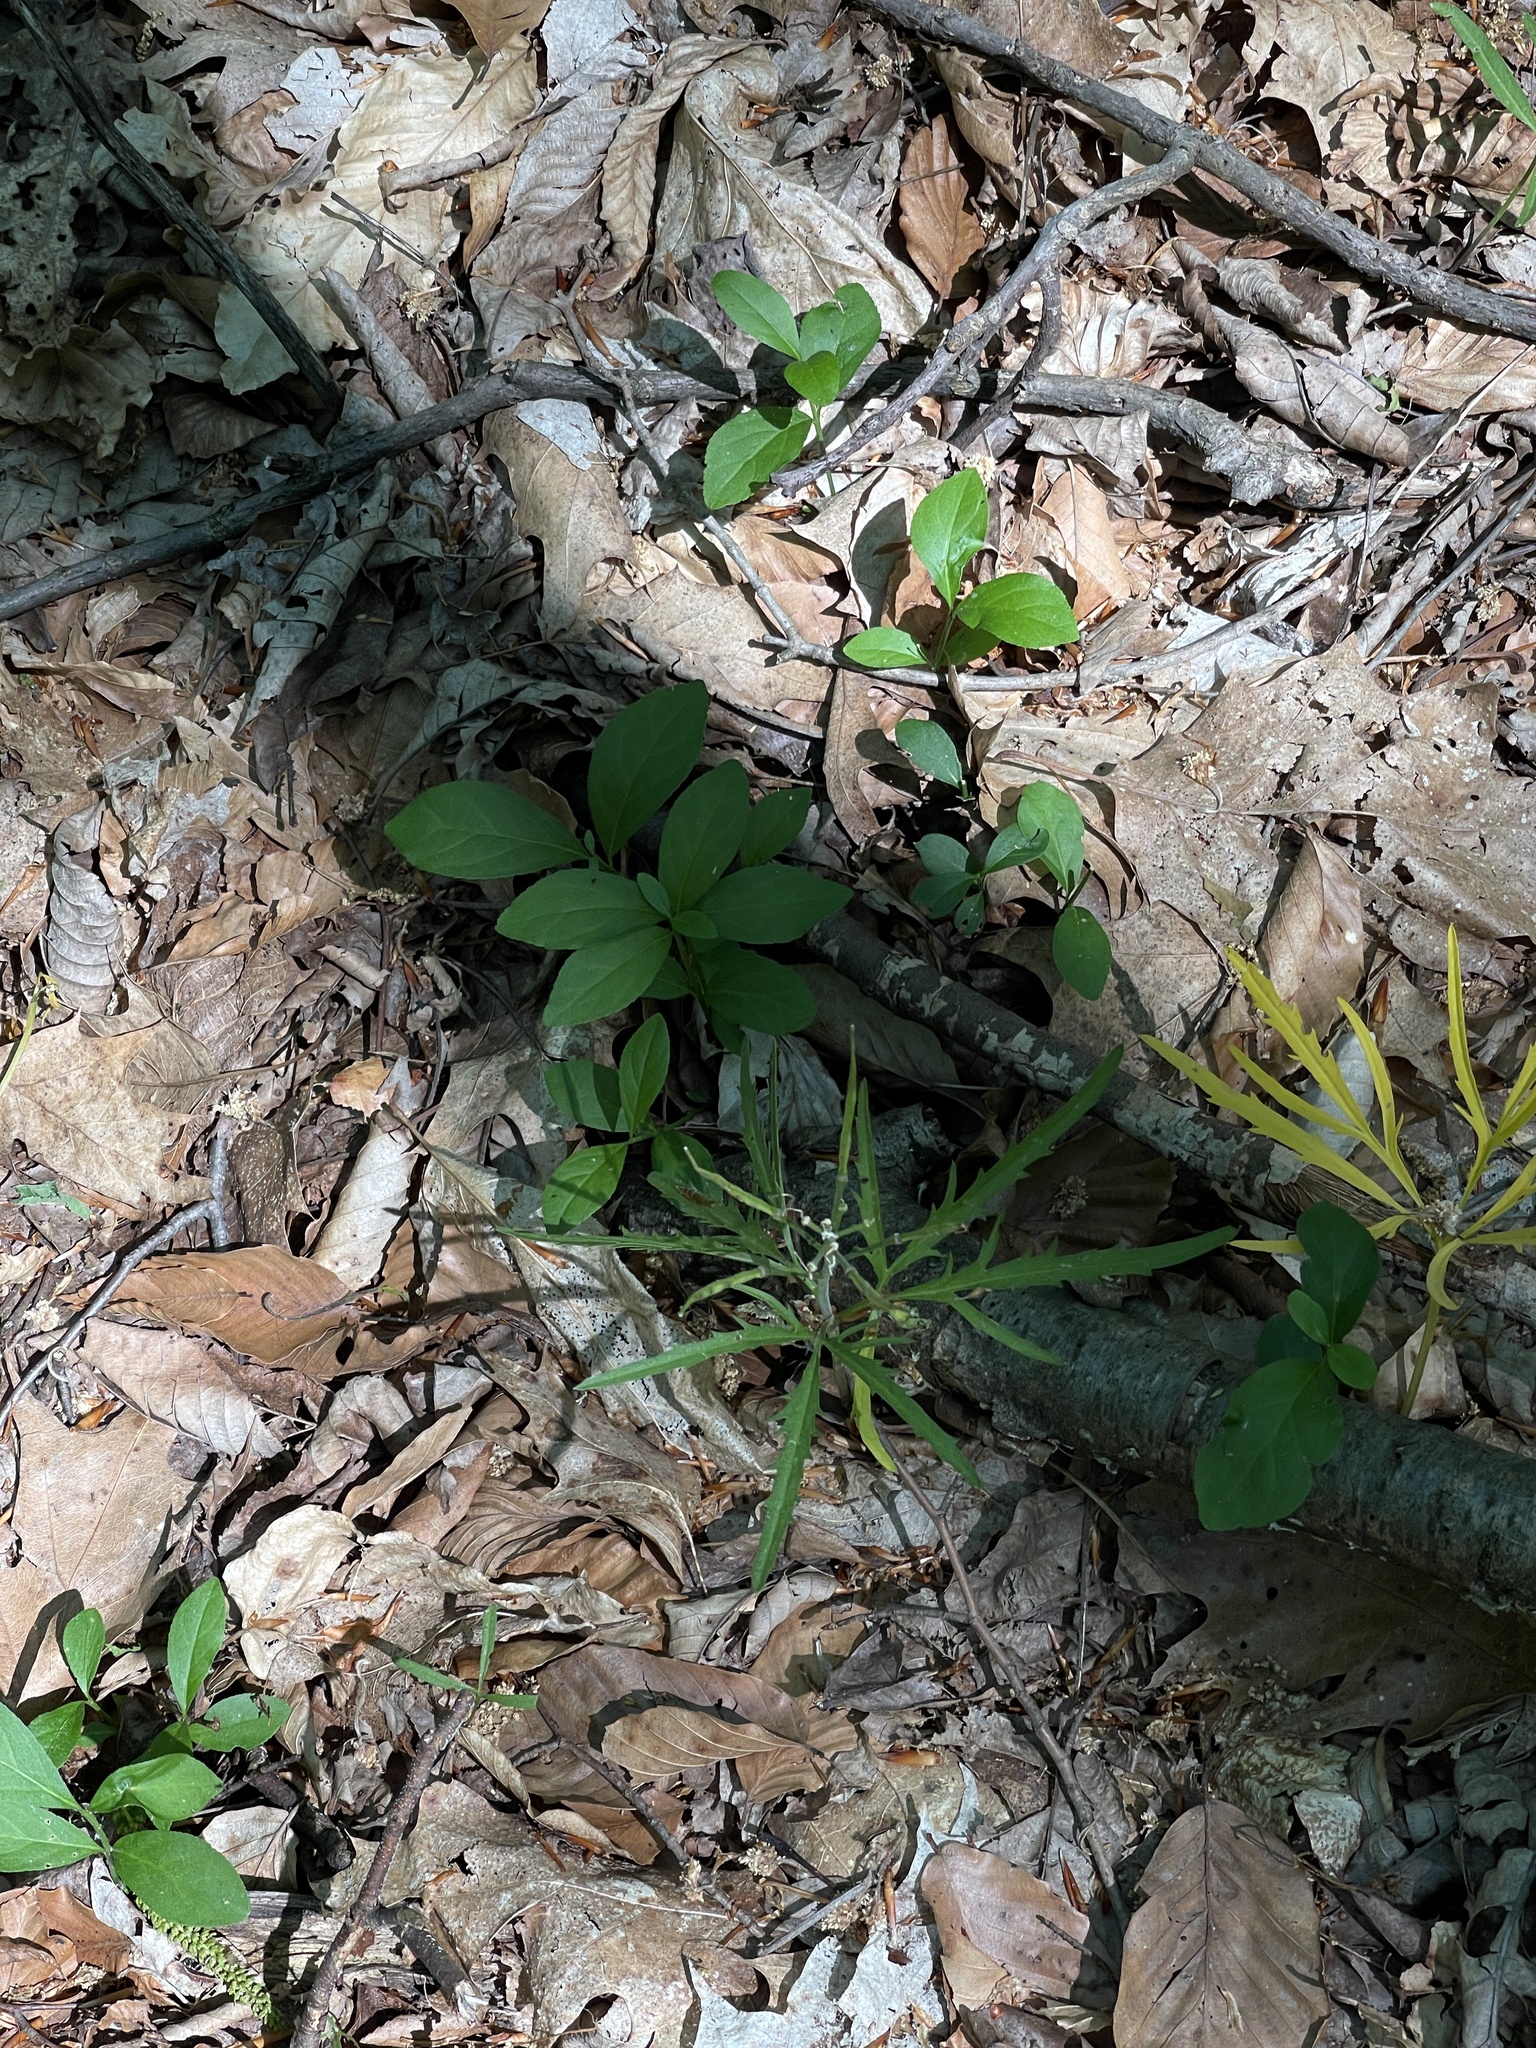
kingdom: Plantae
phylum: Tracheophyta
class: Magnoliopsida
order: Brassicales
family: Brassicaceae
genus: Cardamine
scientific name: Cardamine concatenata
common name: Cut-leaf toothcup
